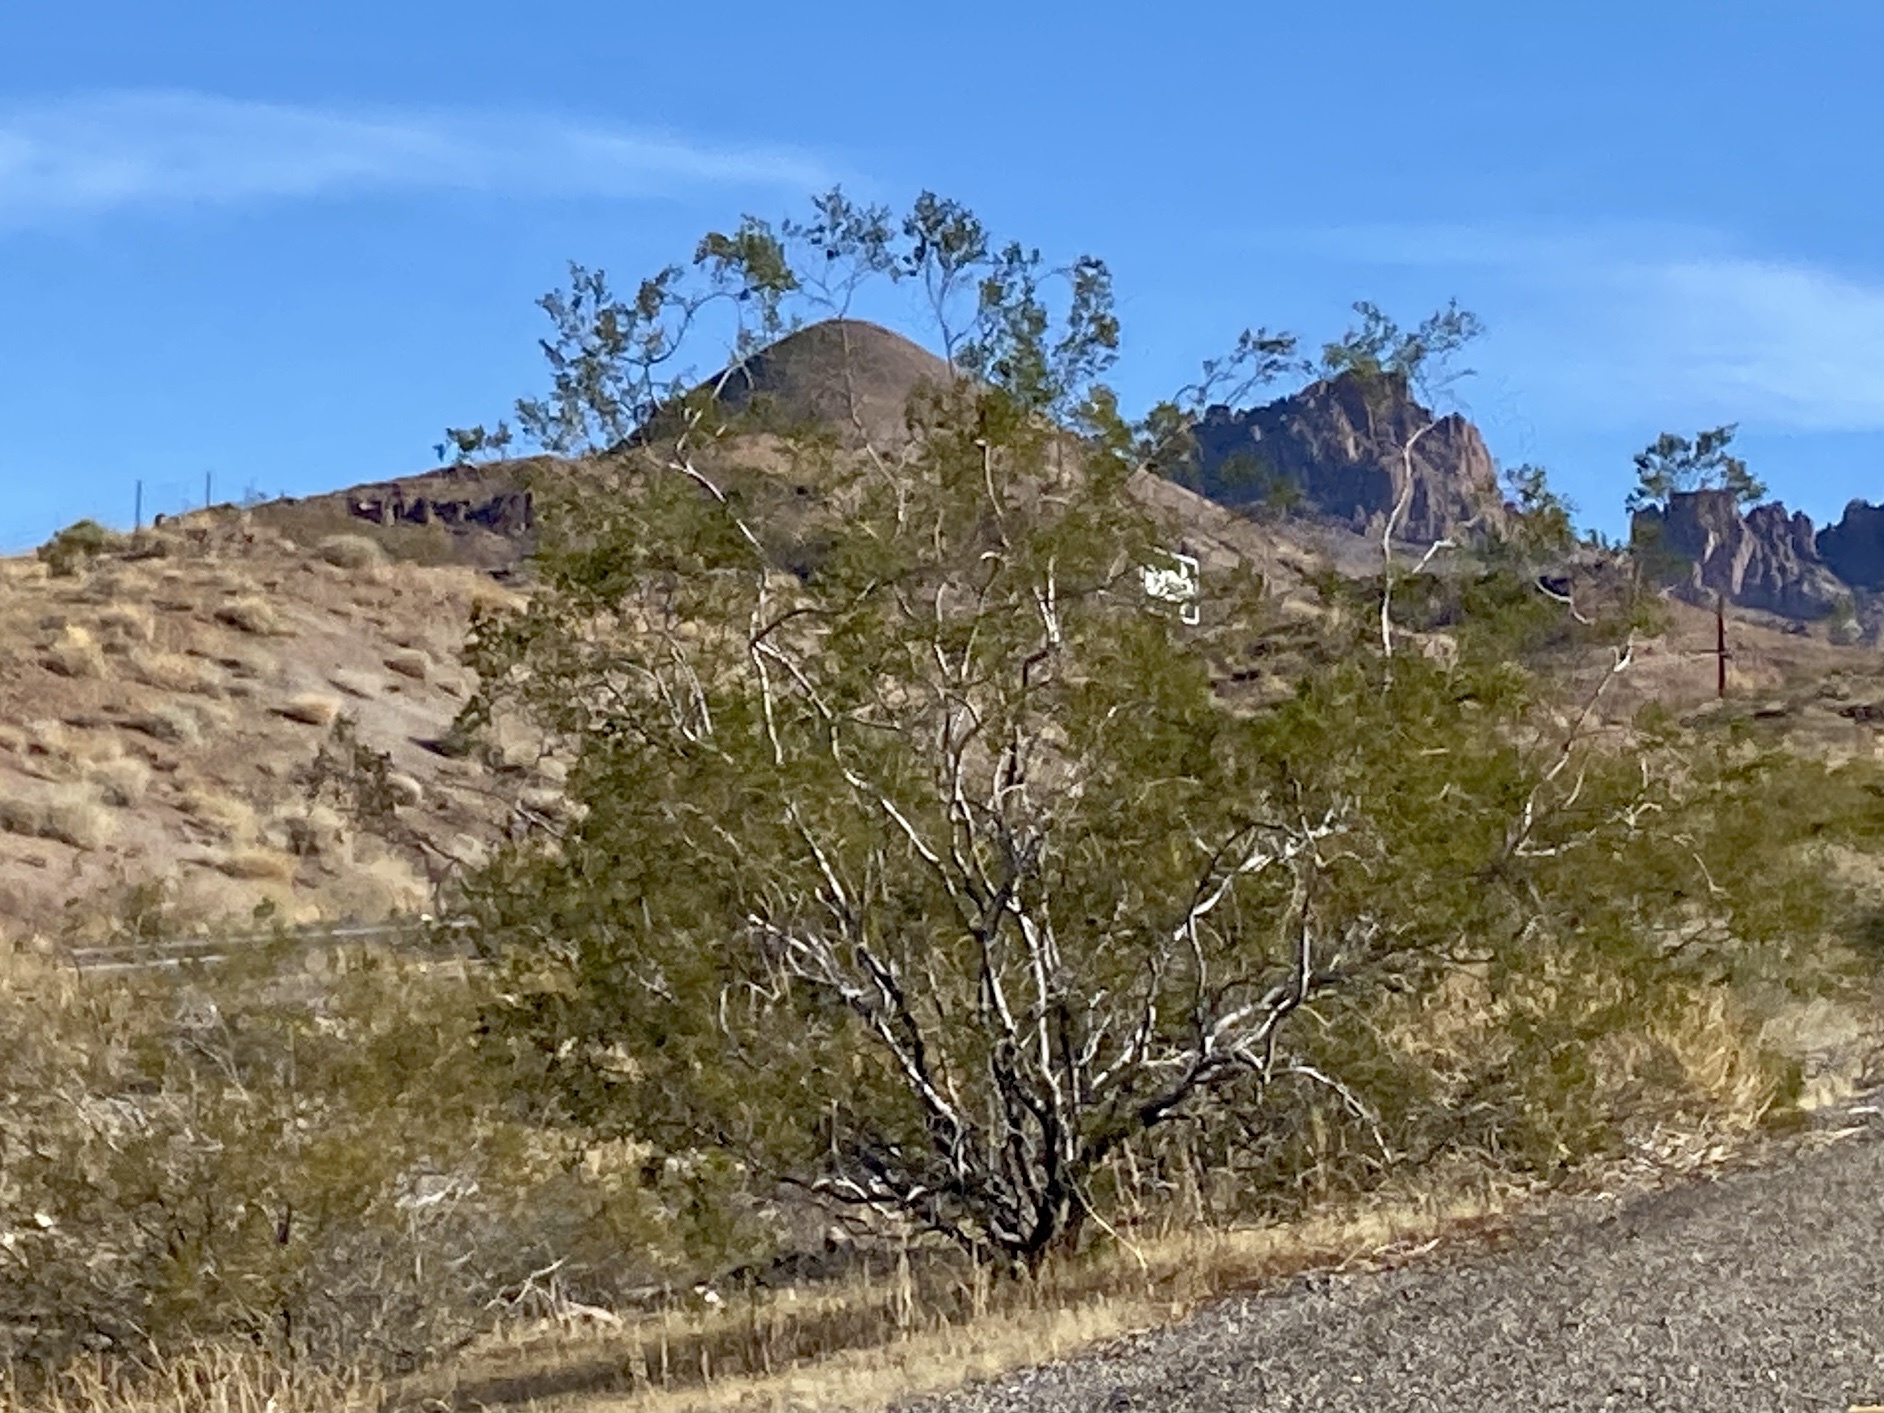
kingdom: Plantae
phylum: Tracheophyta
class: Magnoliopsida
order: Zygophyllales
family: Zygophyllaceae
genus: Larrea
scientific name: Larrea tridentata
